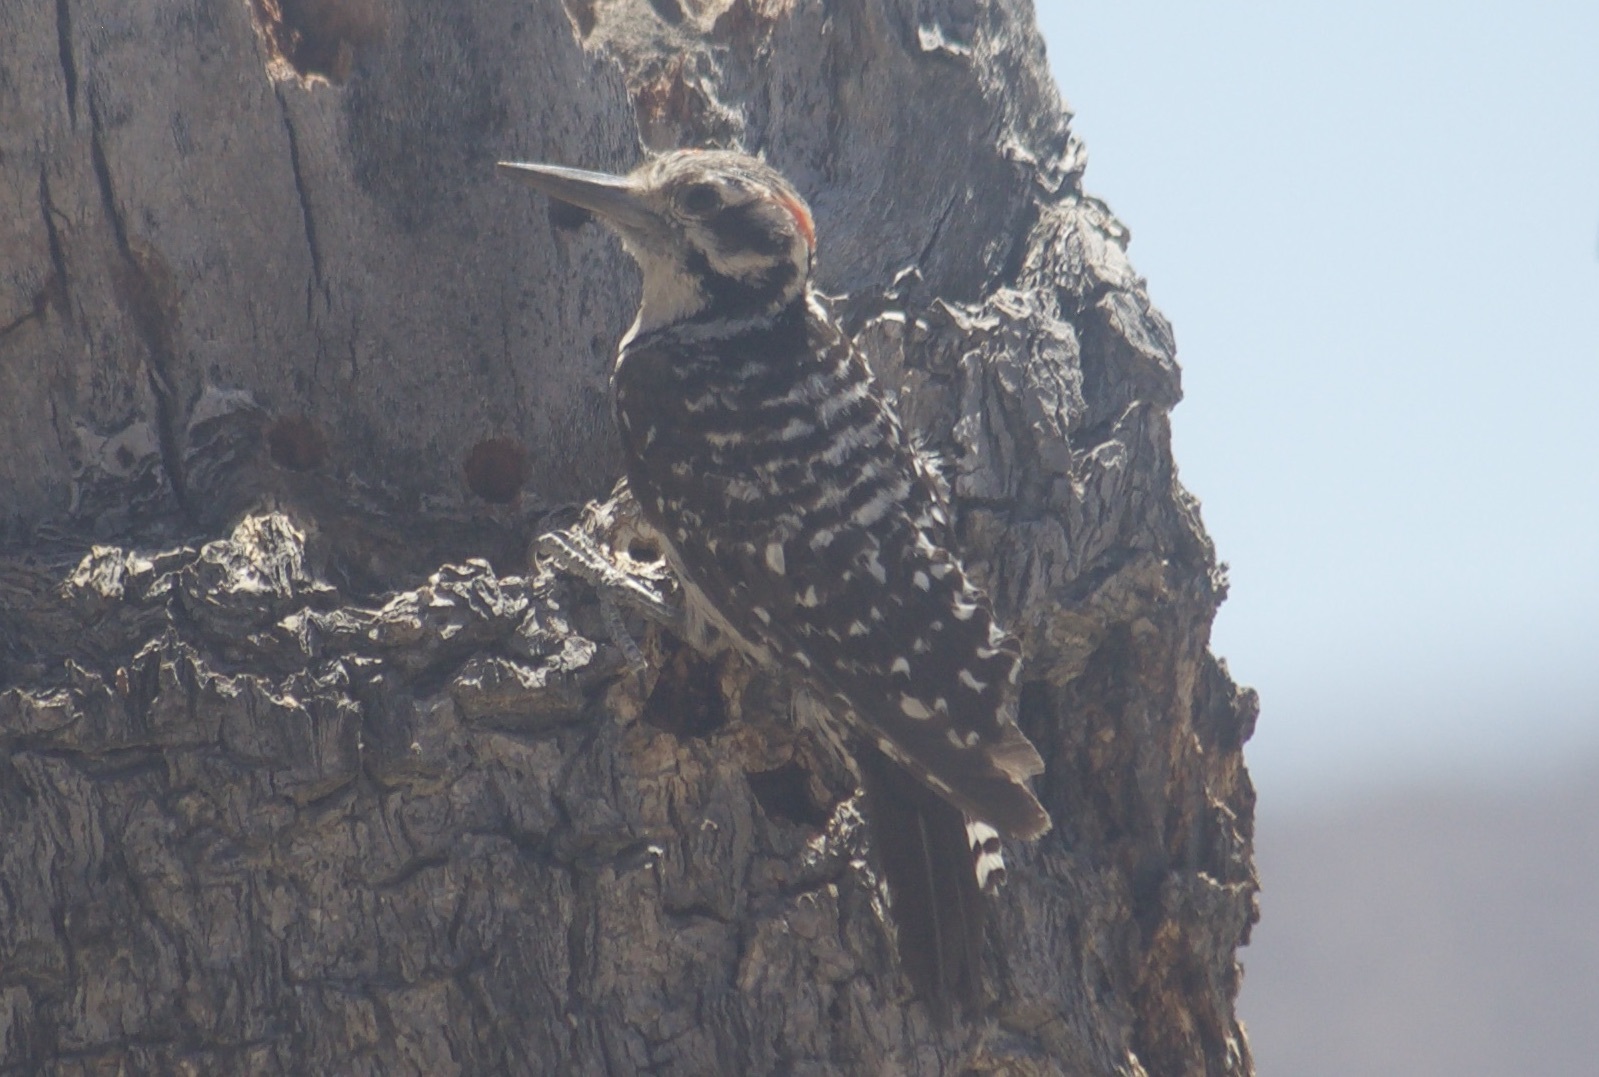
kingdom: Animalia
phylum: Chordata
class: Aves
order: Piciformes
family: Picidae
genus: Dryobates
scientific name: Dryobates scalaris
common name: Ladder-backed woodpecker
